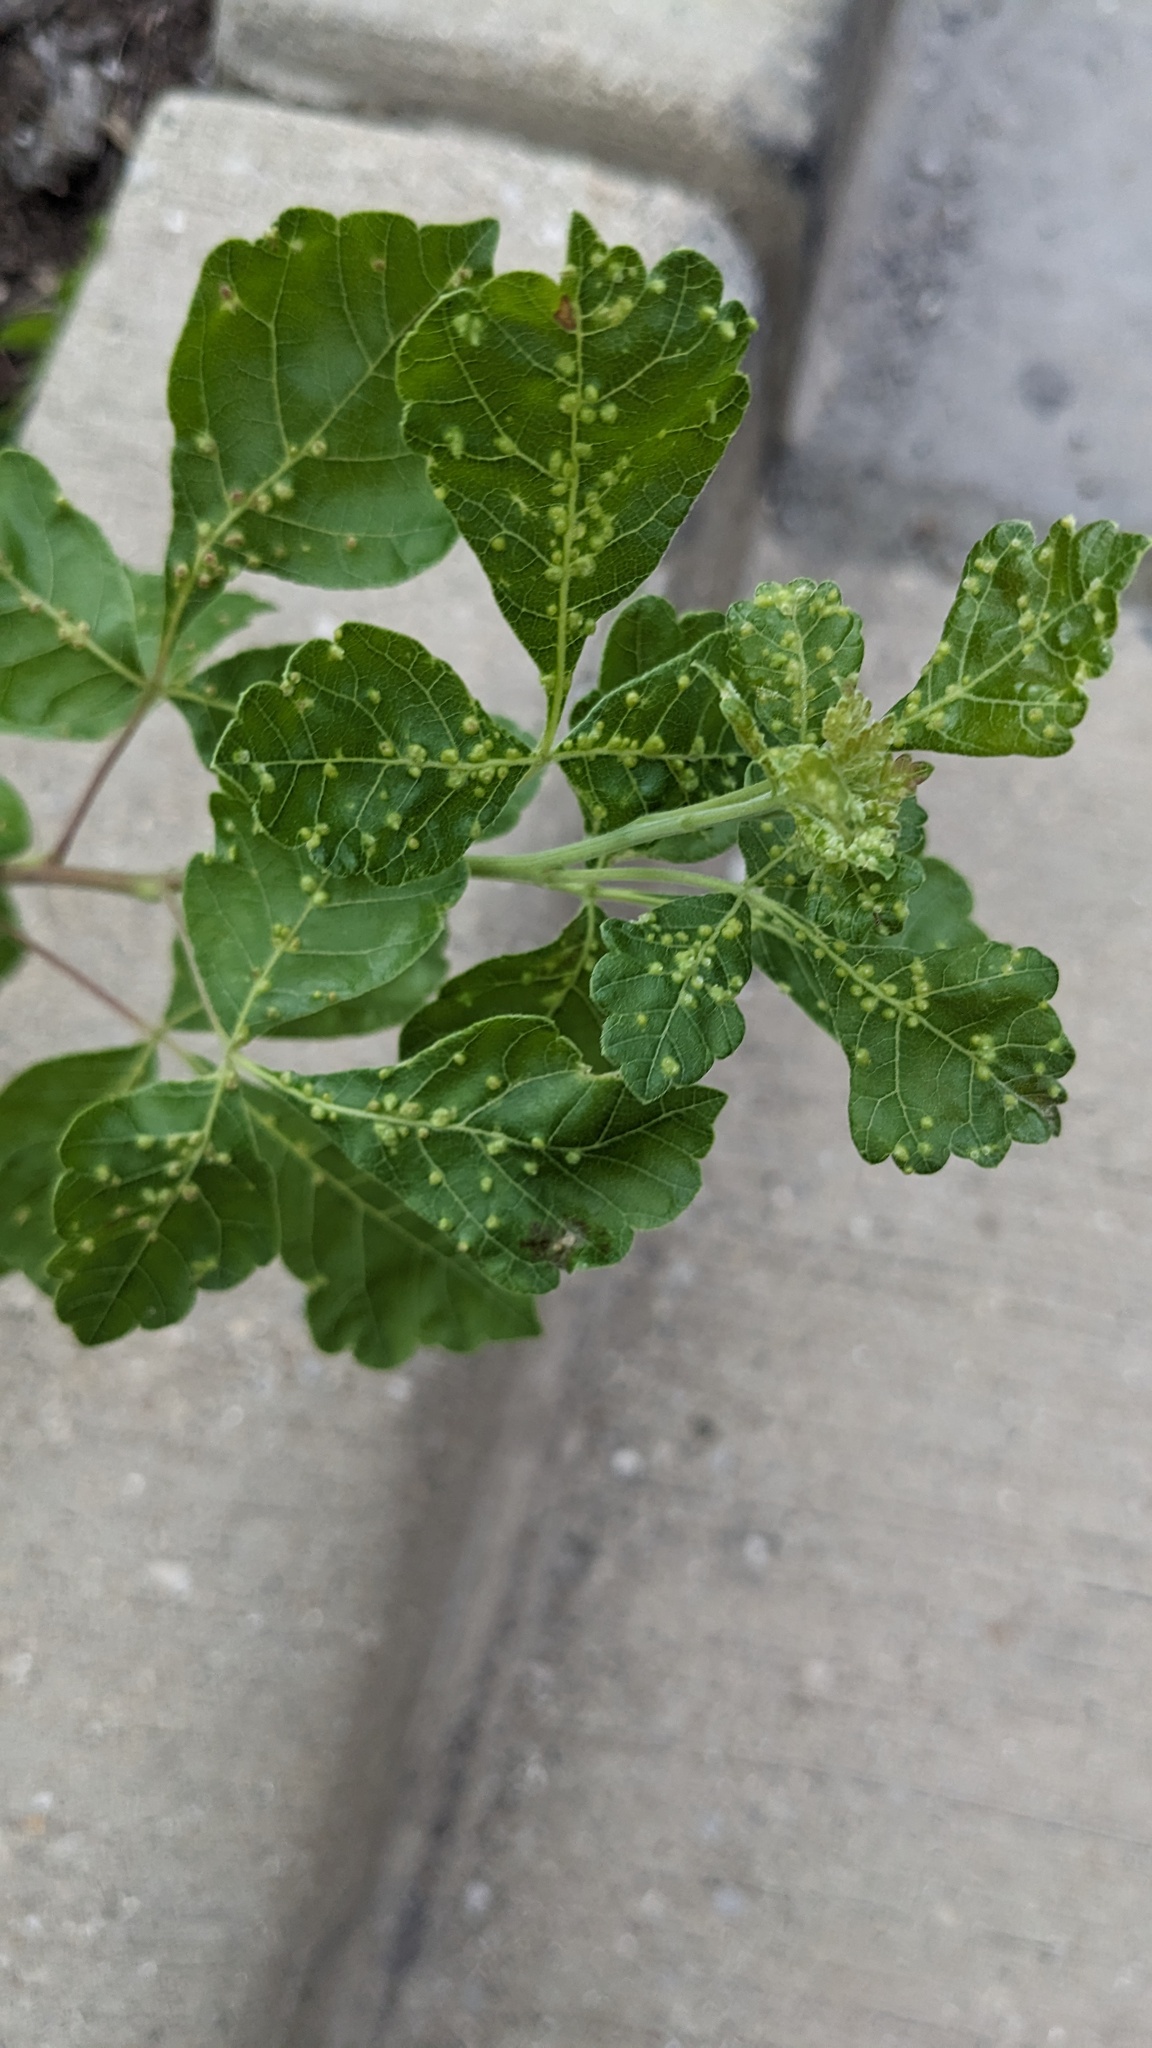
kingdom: Animalia
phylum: Arthropoda
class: Arachnida
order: Trombidiformes
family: Eriophyidae
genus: Aculops
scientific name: Aculops
